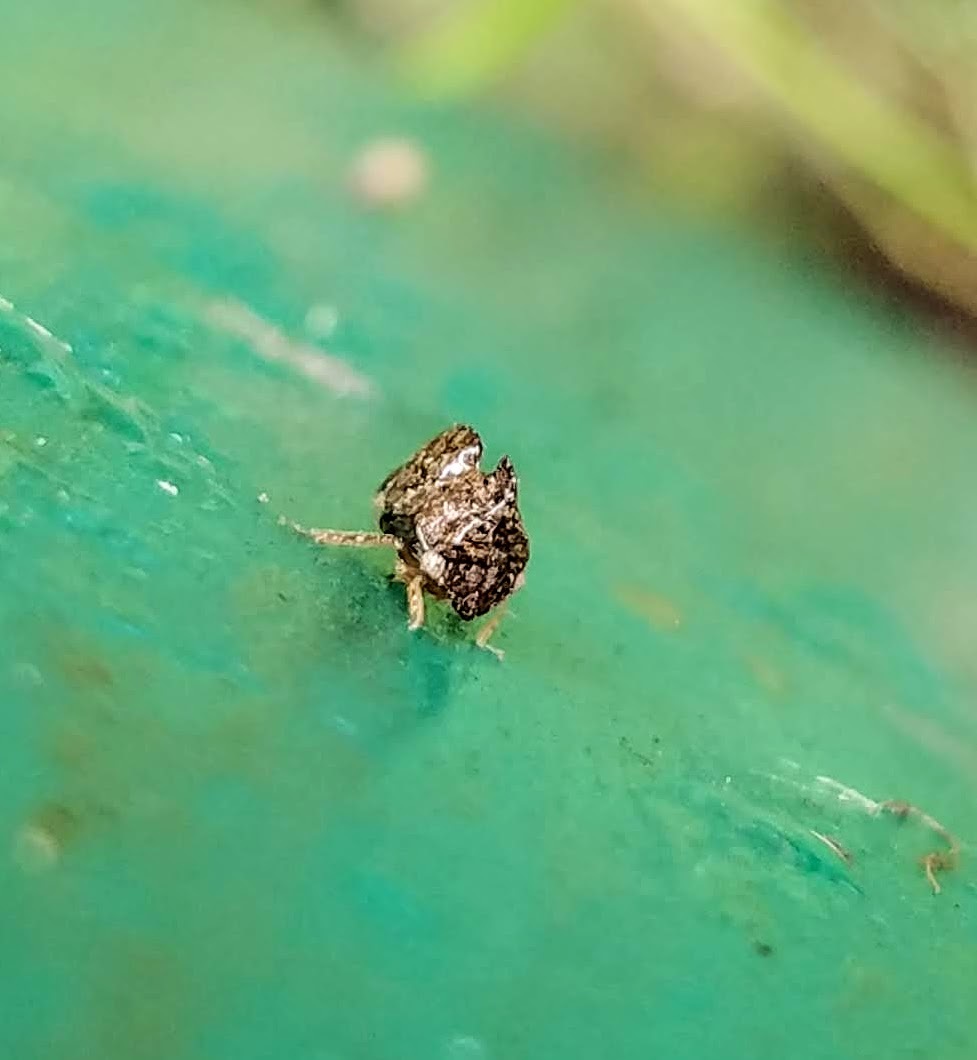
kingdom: Animalia
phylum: Arthropoda
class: Insecta
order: Hemiptera
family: Membracidae
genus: Entylia
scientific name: Entylia carinata
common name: Keeled treehopper
